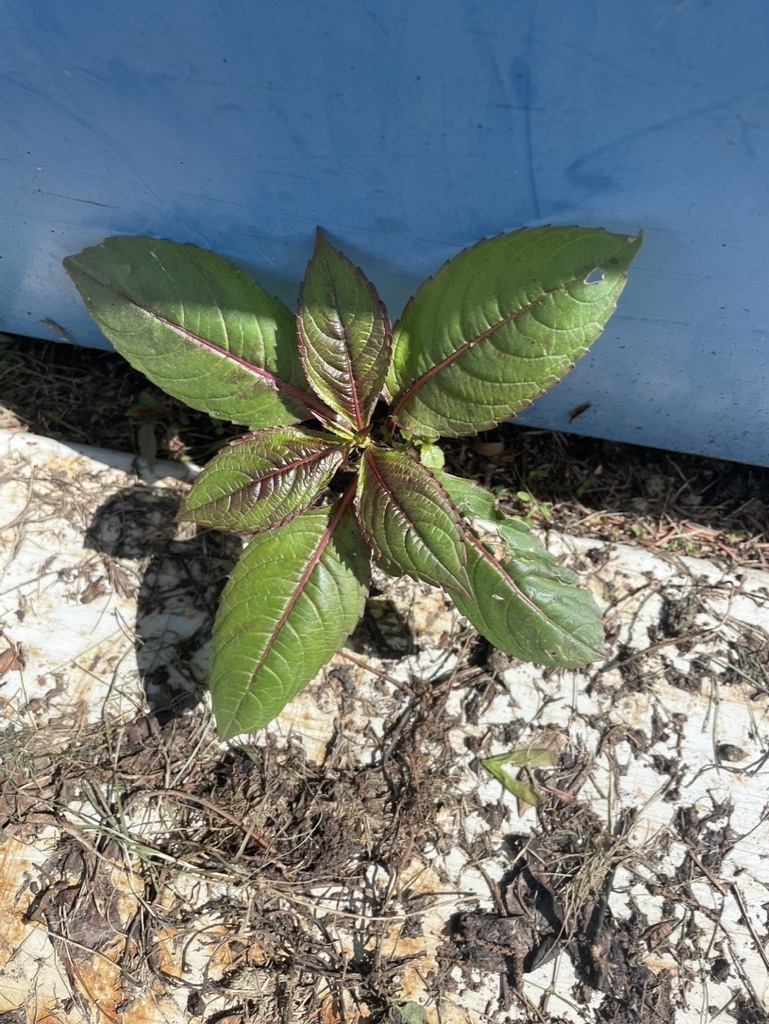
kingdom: Plantae
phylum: Tracheophyta
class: Magnoliopsida
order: Ericales
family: Balsaminaceae
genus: Impatiens
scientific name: Impatiens glandulifera
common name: Himalayan balsam
